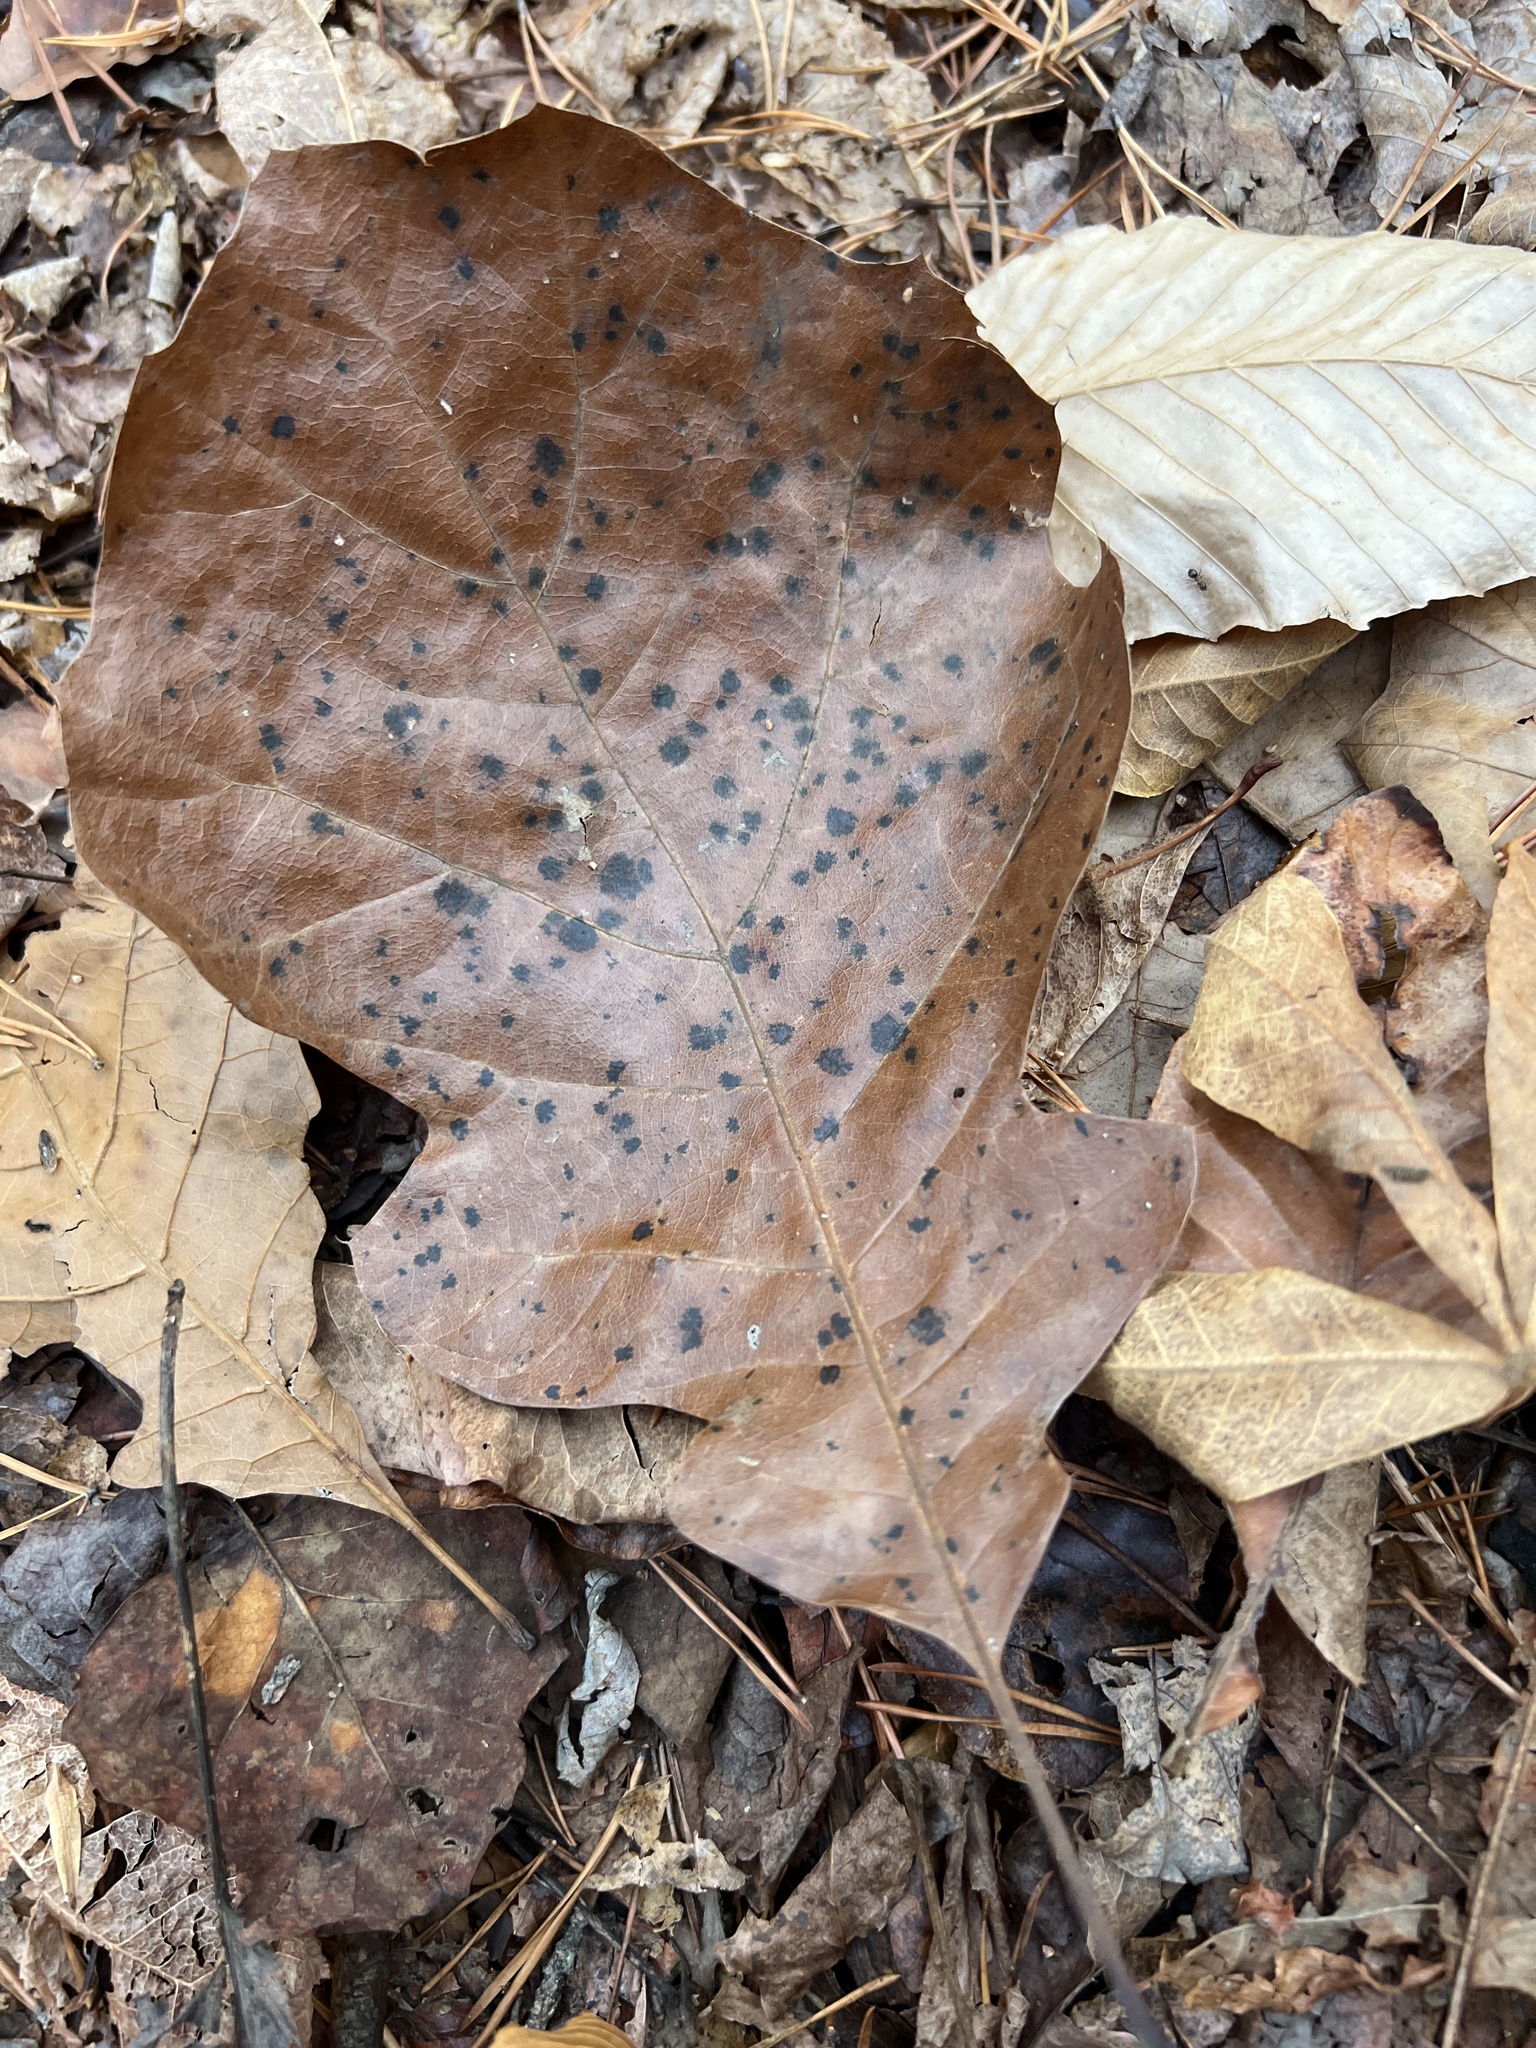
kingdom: Plantae
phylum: Tracheophyta
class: Magnoliopsida
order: Fagales
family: Fagaceae
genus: Quercus
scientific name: Quercus velutina
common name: Black oak
